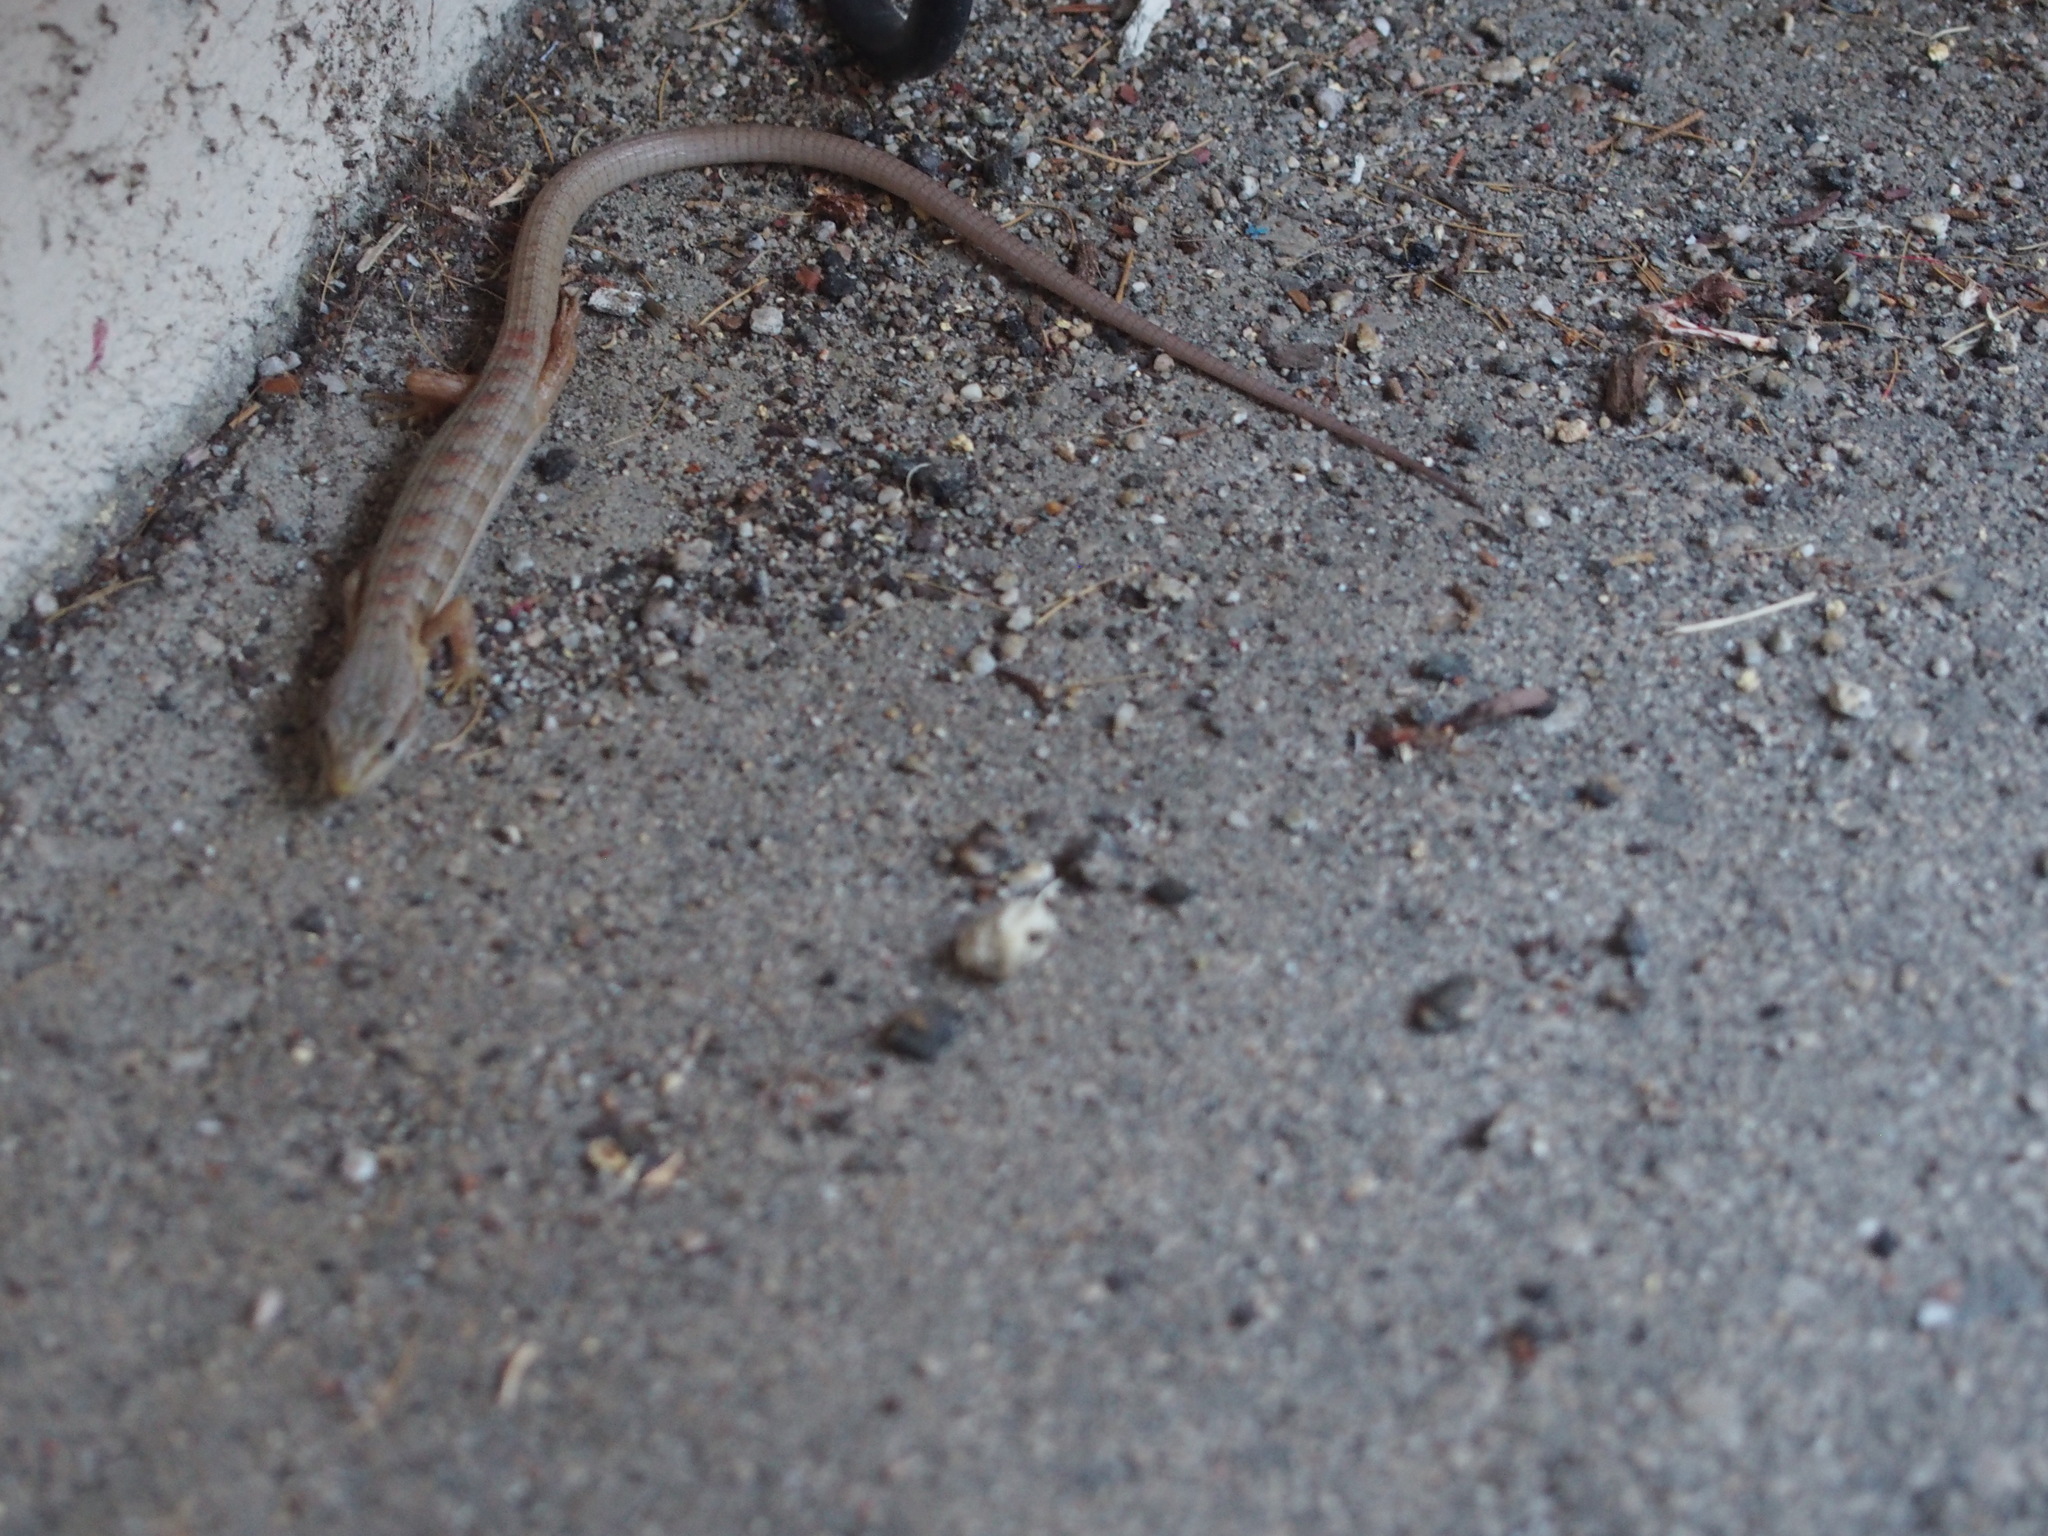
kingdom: Animalia
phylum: Chordata
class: Squamata
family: Anguidae
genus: Elgaria
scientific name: Elgaria multicarinata
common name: Southern alligator lizard
